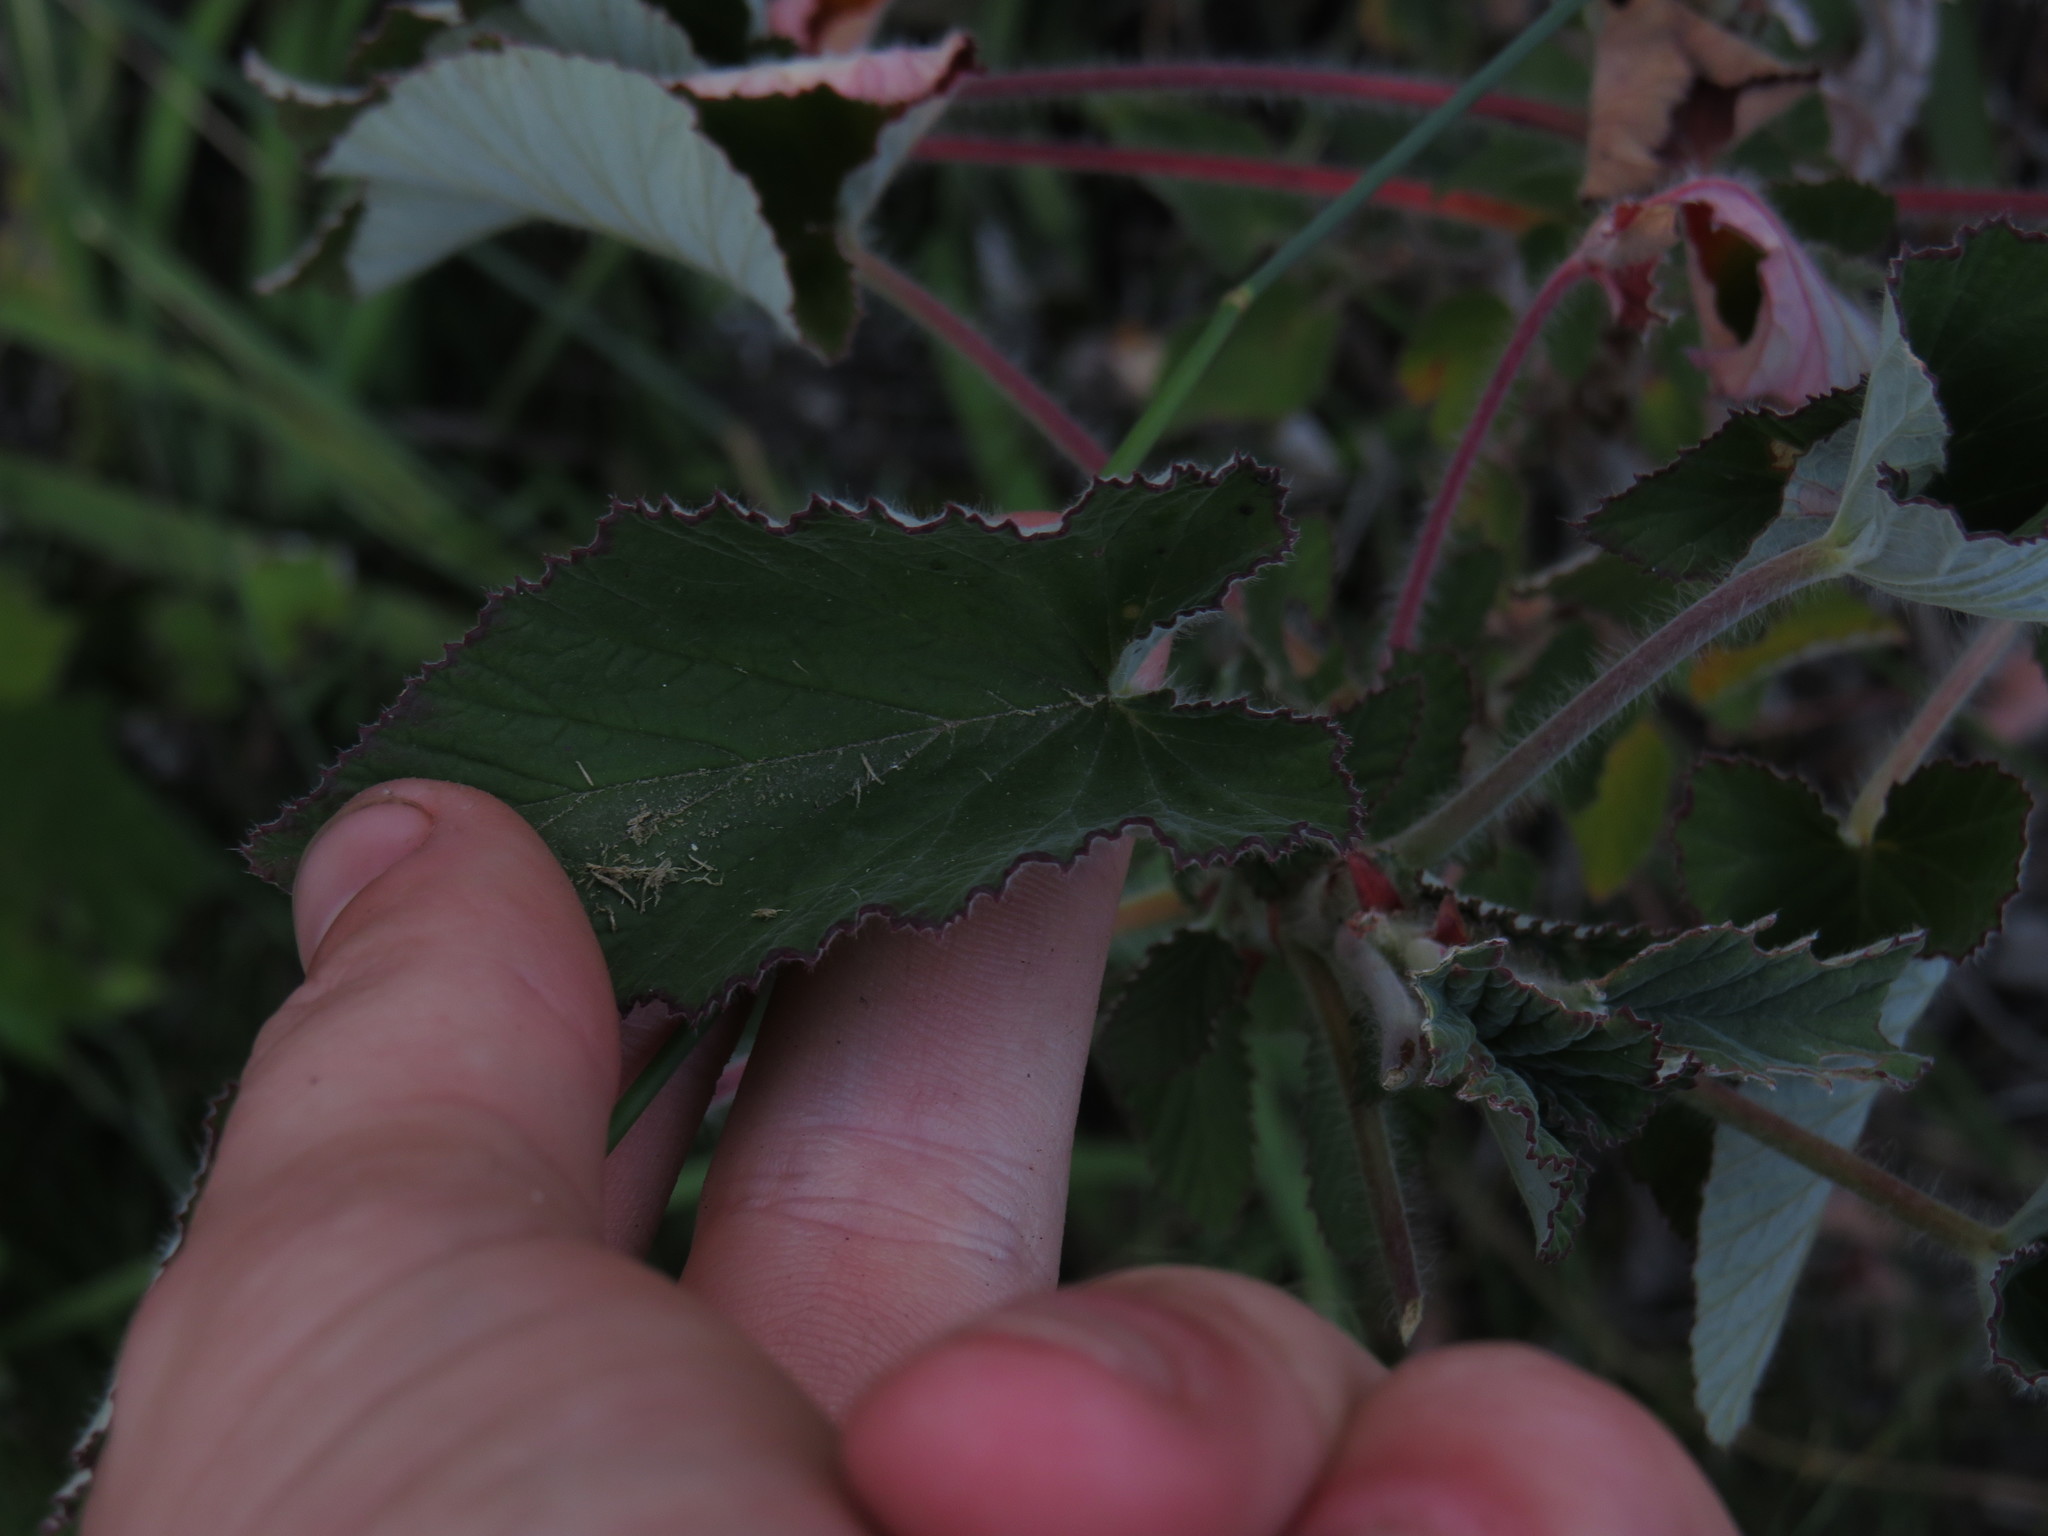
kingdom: Plantae
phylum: Tracheophyta
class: Magnoliopsida
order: Geraniales
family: Geraniaceae
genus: Pelargonium
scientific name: Pelargonium cordifolium
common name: Heart-leaf pelargonium
